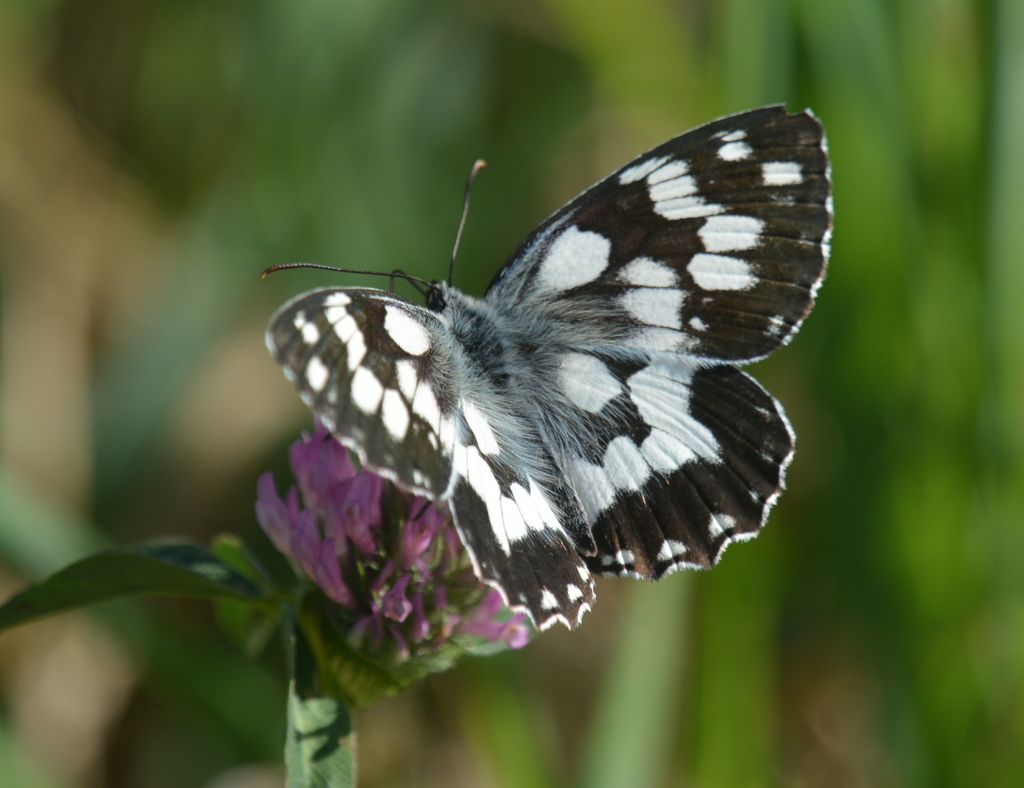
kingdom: Animalia
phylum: Arthropoda
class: Insecta
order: Lepidoptera
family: Nymphalidae
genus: Melanargia
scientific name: Melanargia galathea
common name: Marbled white
